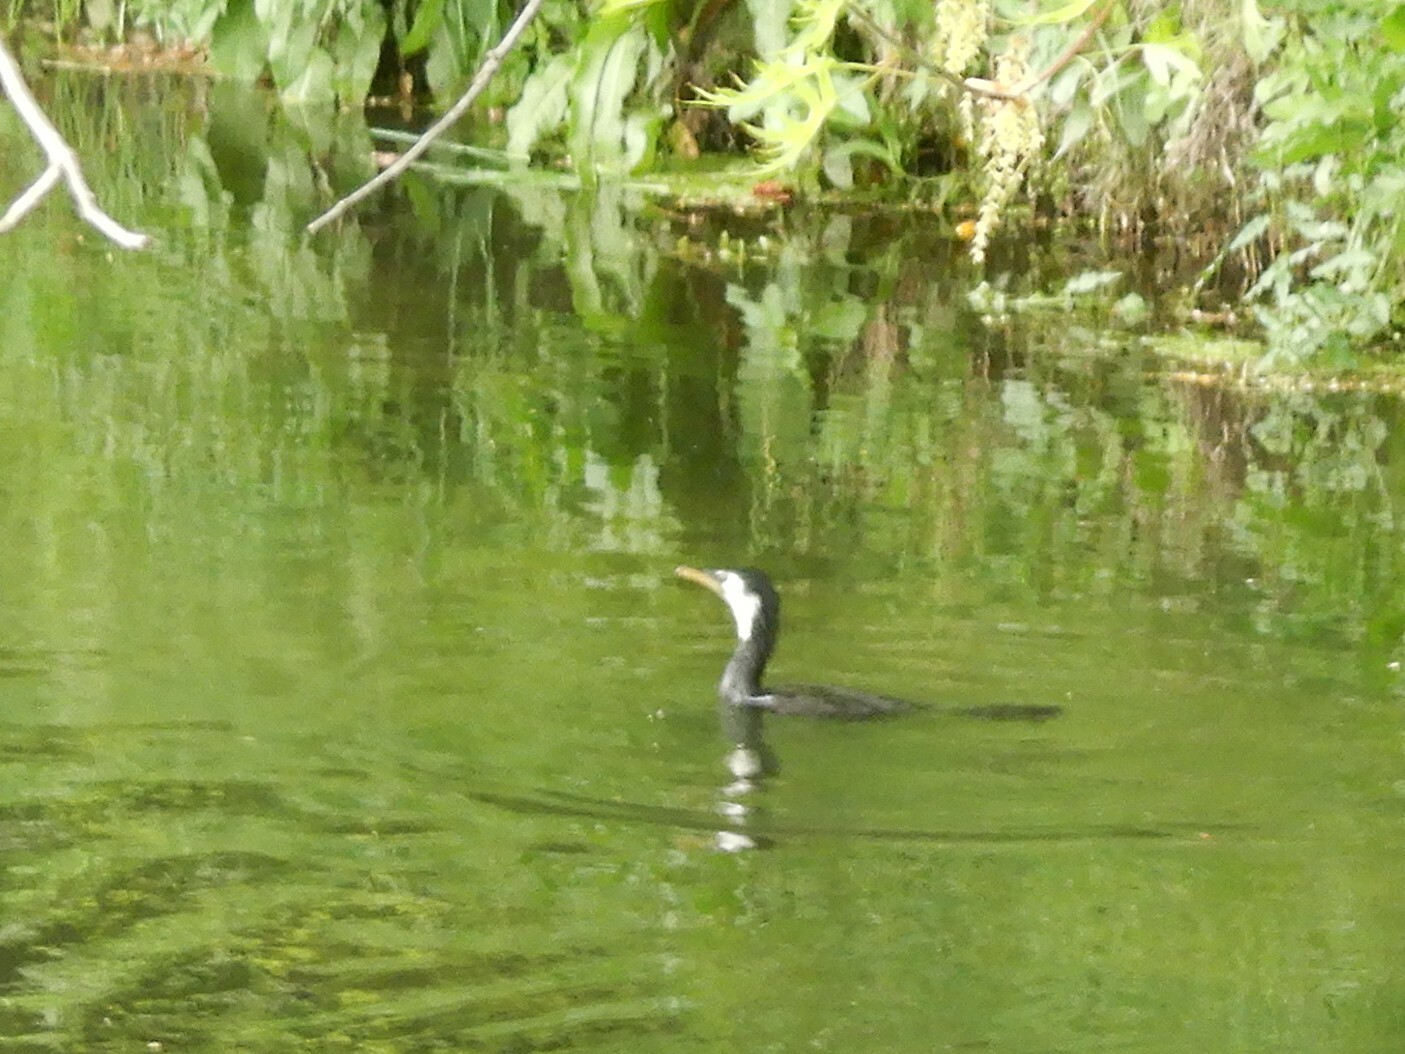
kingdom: Animalia
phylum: Chordata
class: Aves
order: Suliformes
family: Phalacrocoracidae
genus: Microcarbo
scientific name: Microcarbo melanoleucos
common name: Little pied cormorant
